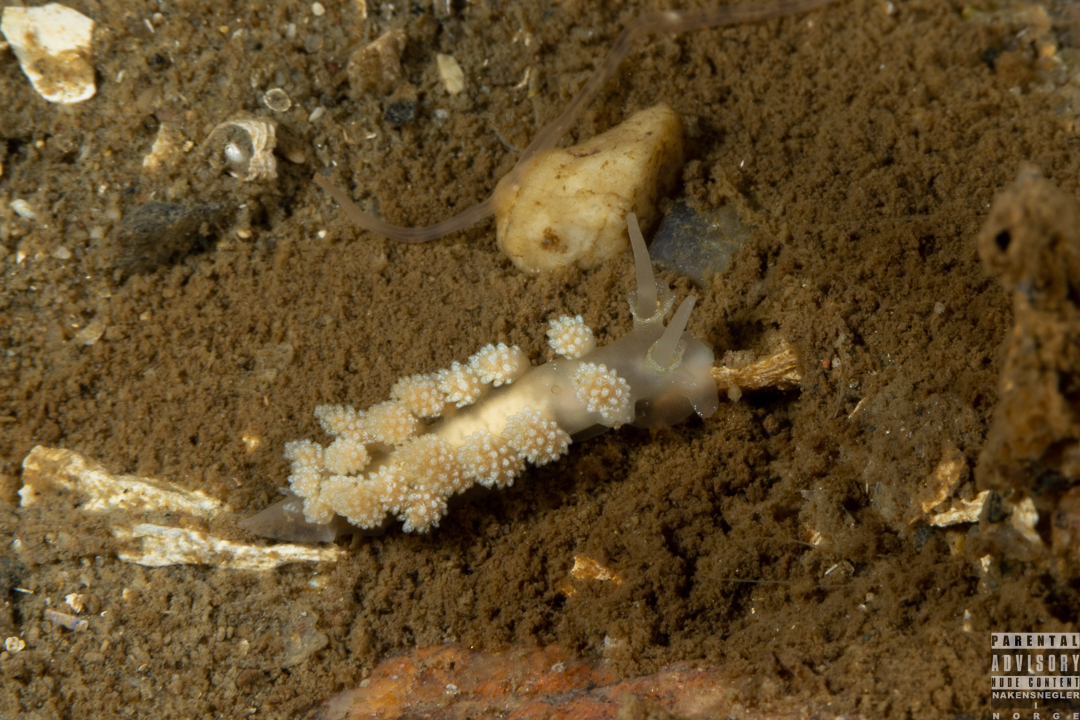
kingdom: Animalia
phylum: Mollusca
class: Gastropoda
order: Nudibranchia
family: Dotidae
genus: Doto
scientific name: Doto fragilis
